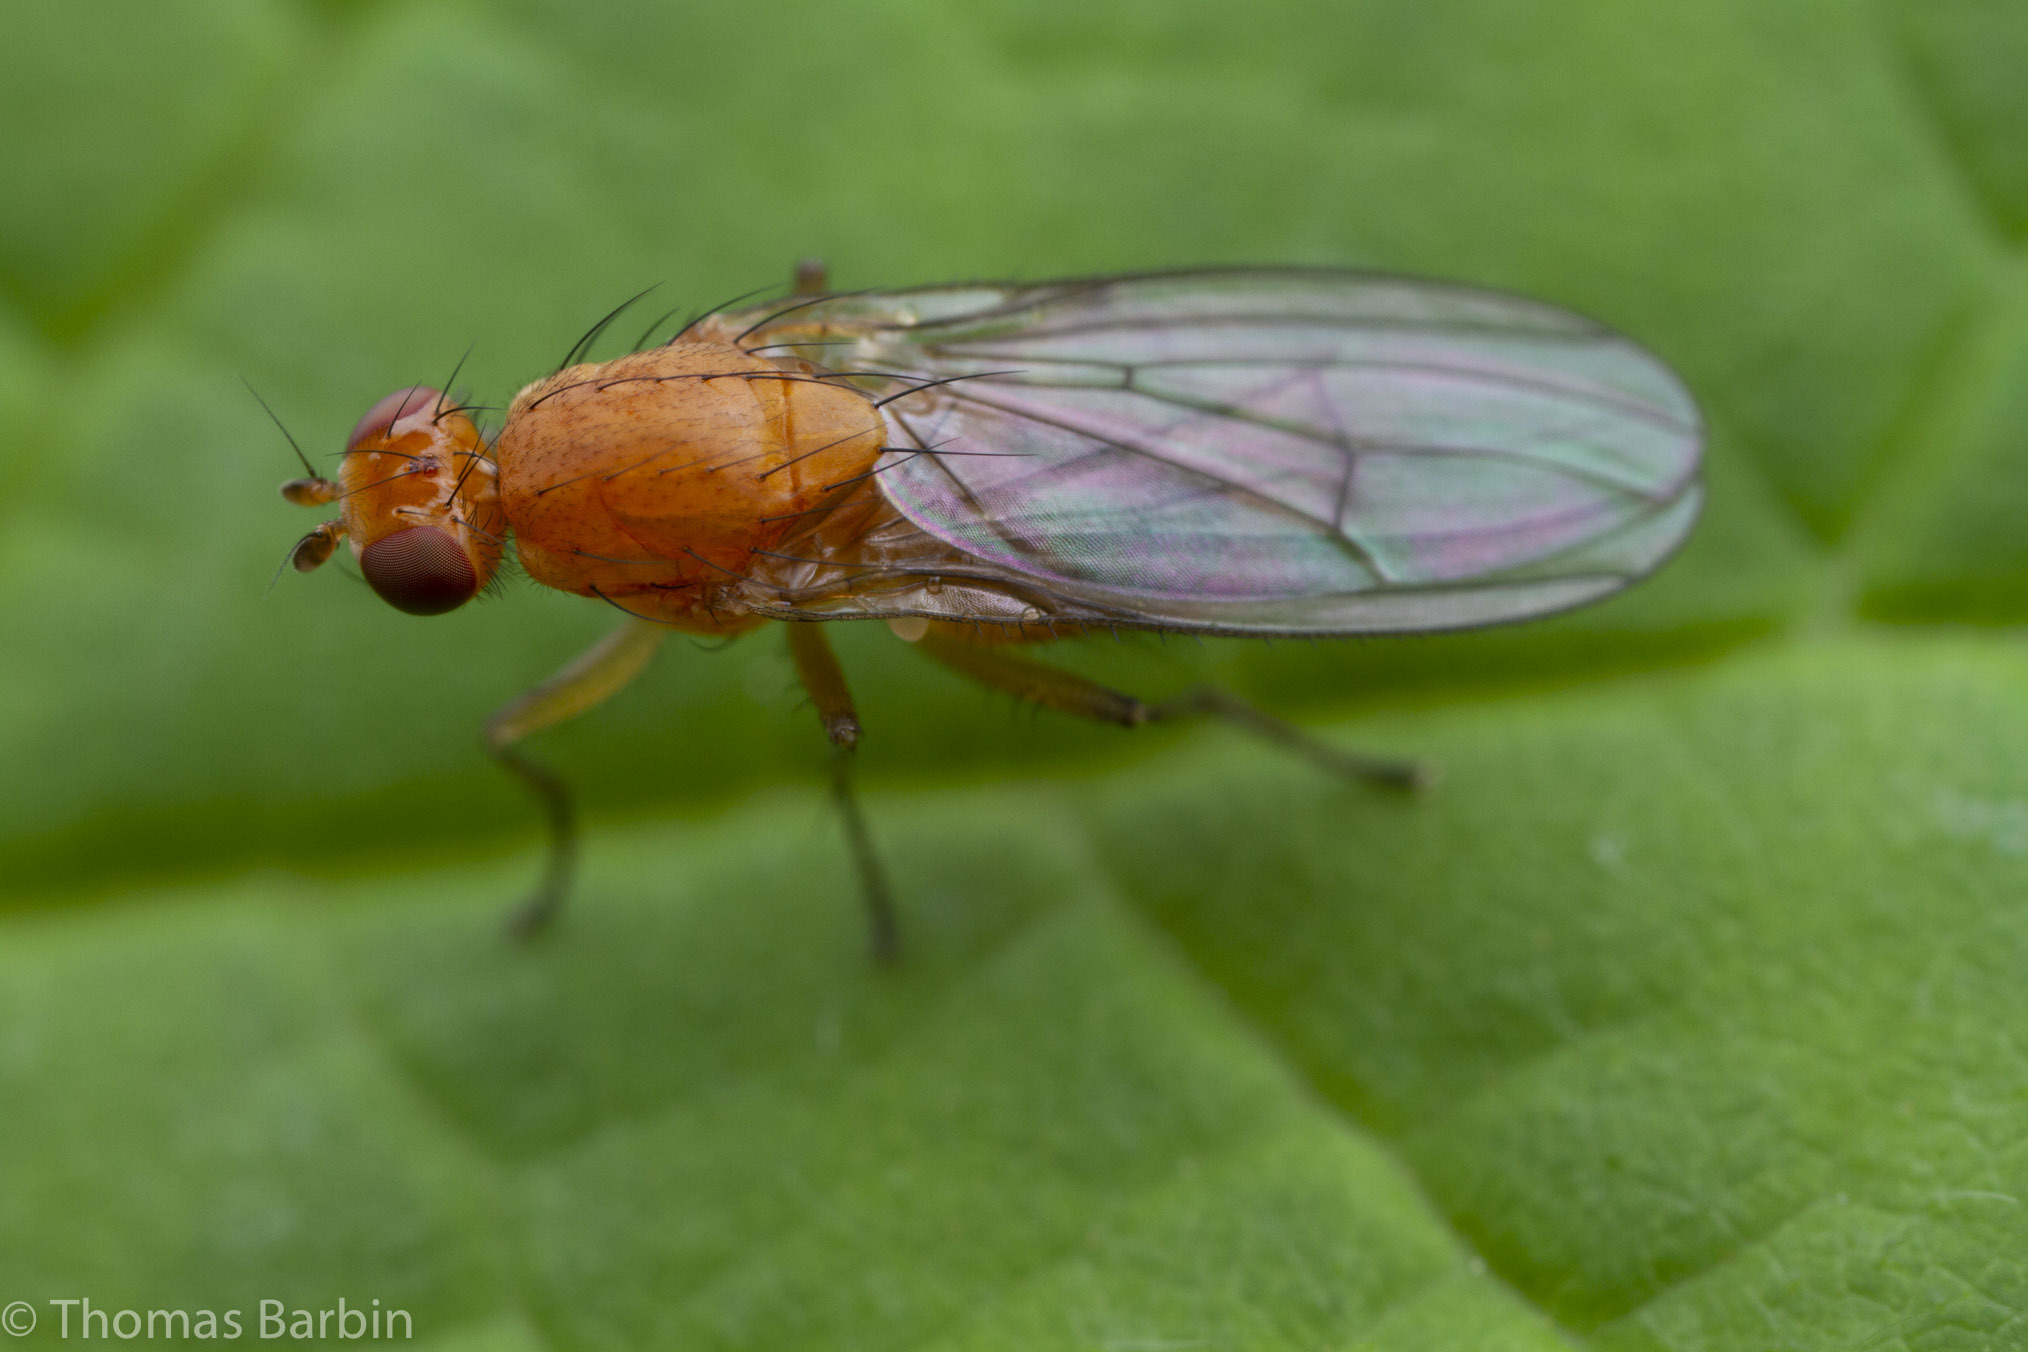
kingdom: Animalia
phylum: Arthropoda
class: Insecta
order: Diptera
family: Heleomyzidae
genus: Suillia
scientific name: Suillia convergens
